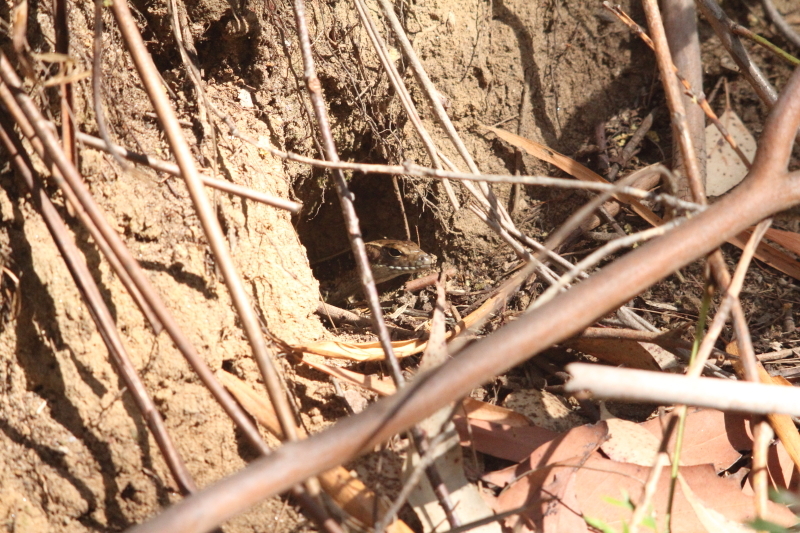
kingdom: Animalia
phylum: Chordata
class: Squamata
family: Scincidae
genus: Eulamprus
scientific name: Eulamprus quoyii
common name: Eastern water skink
